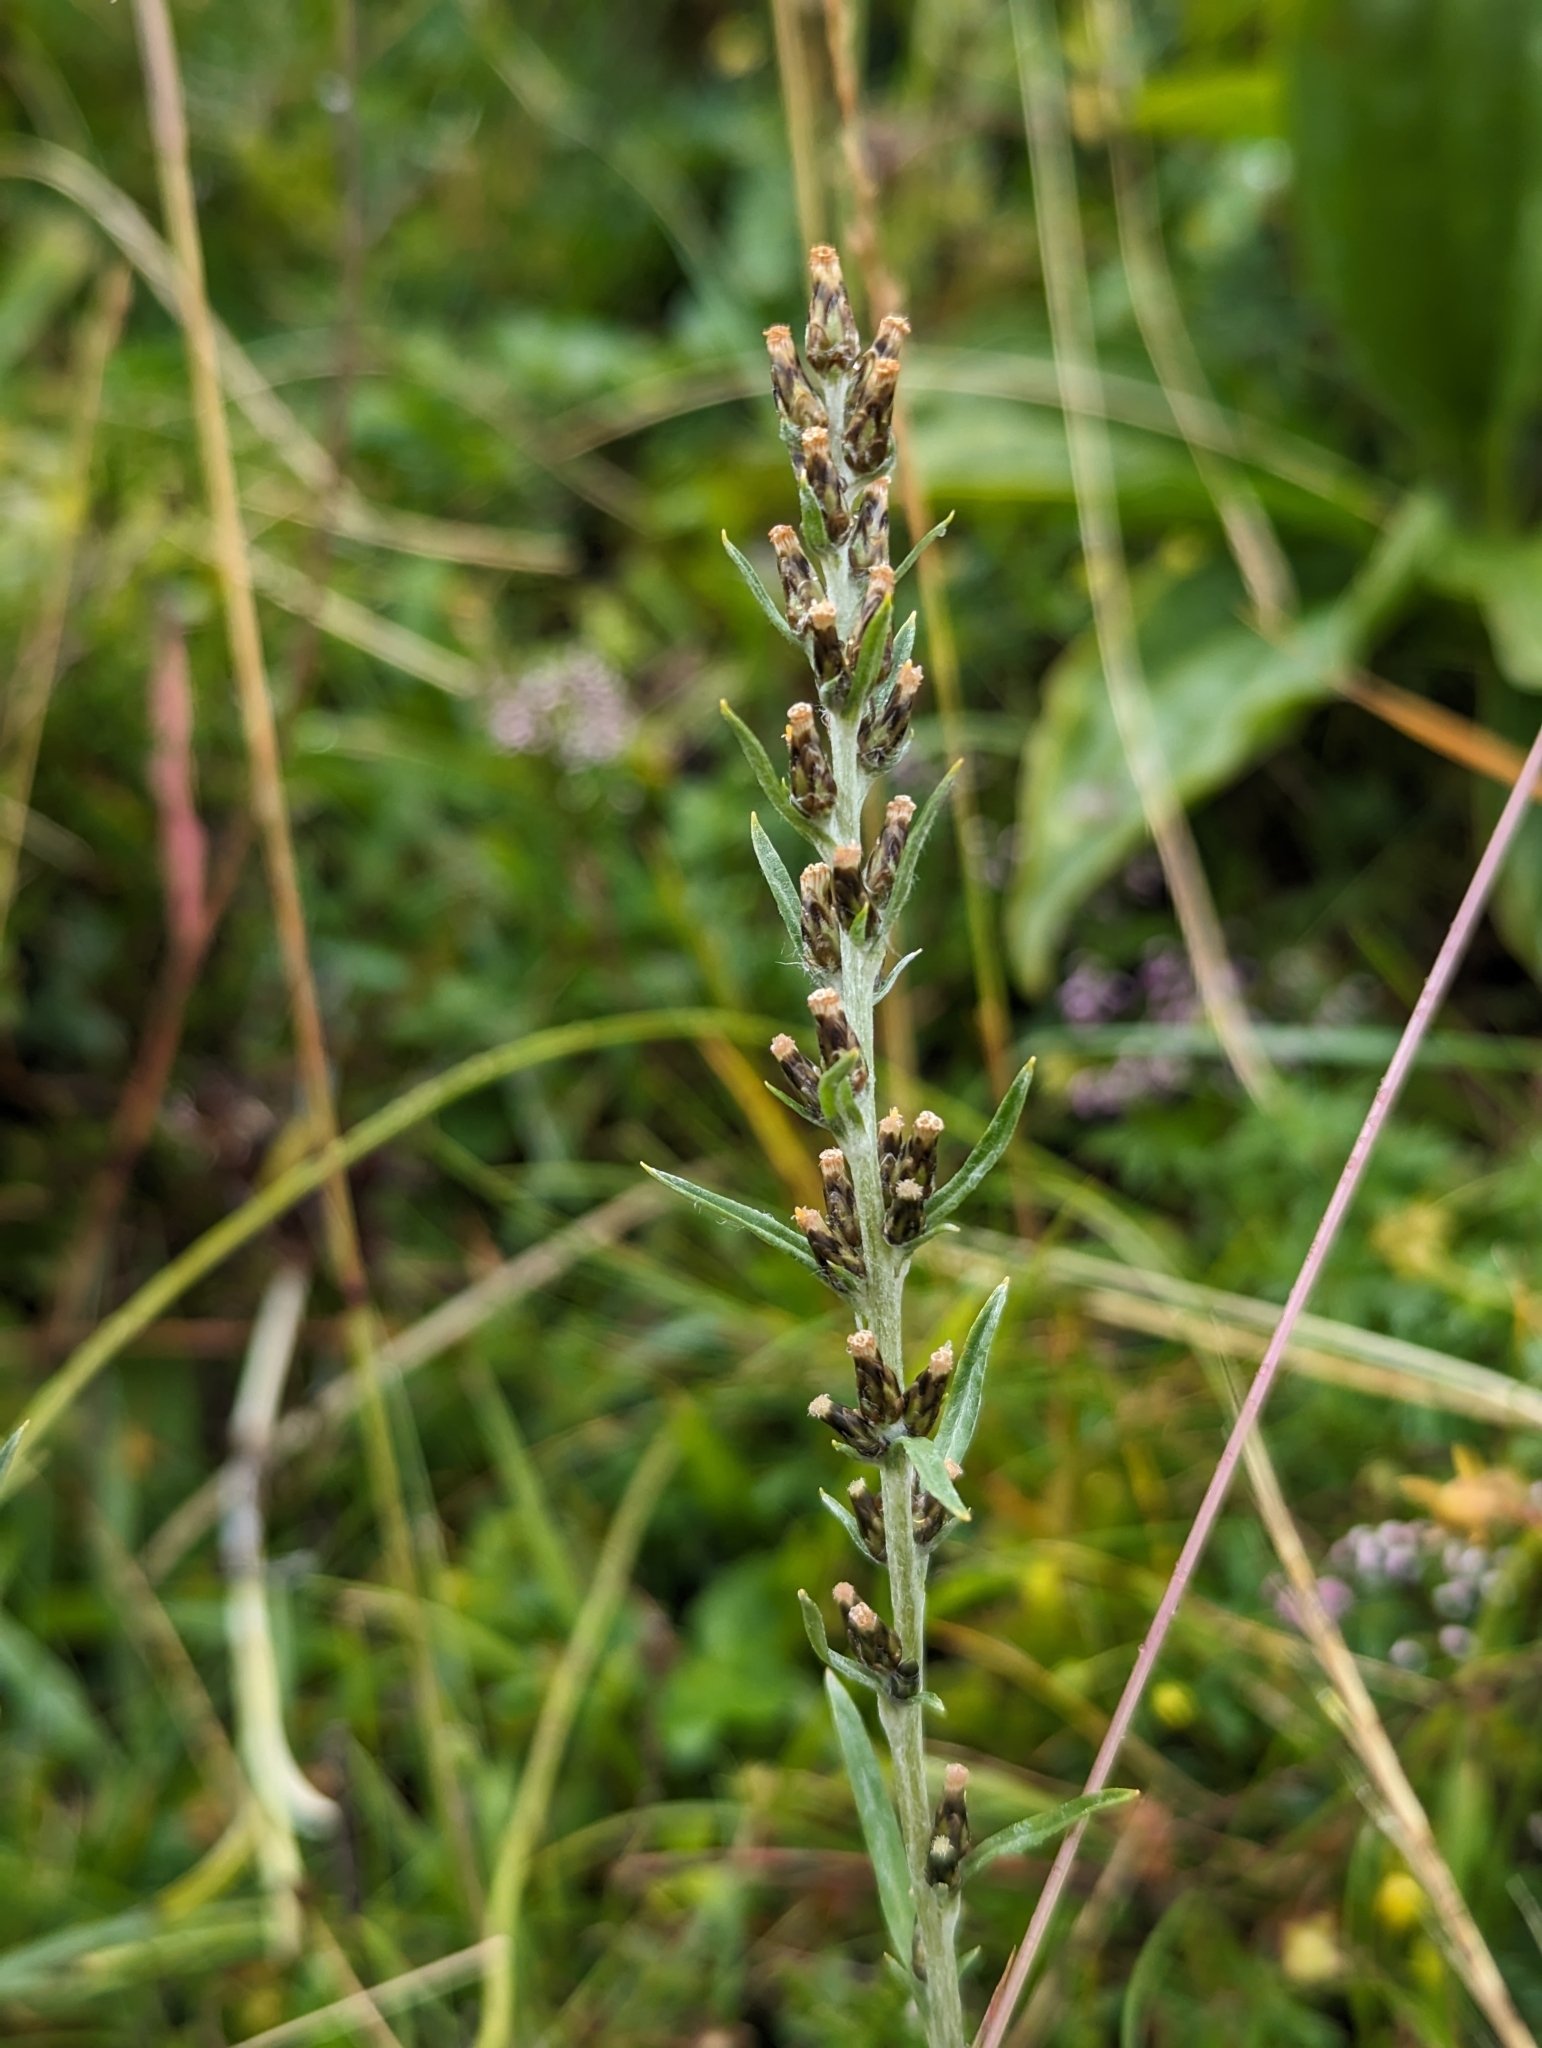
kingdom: Plantae
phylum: Tracheophyta
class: Magnoliopsida
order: Asterales
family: Asteraceae
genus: Omalotheca
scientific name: Omalotheca sylvatica
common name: Heath cudweed
